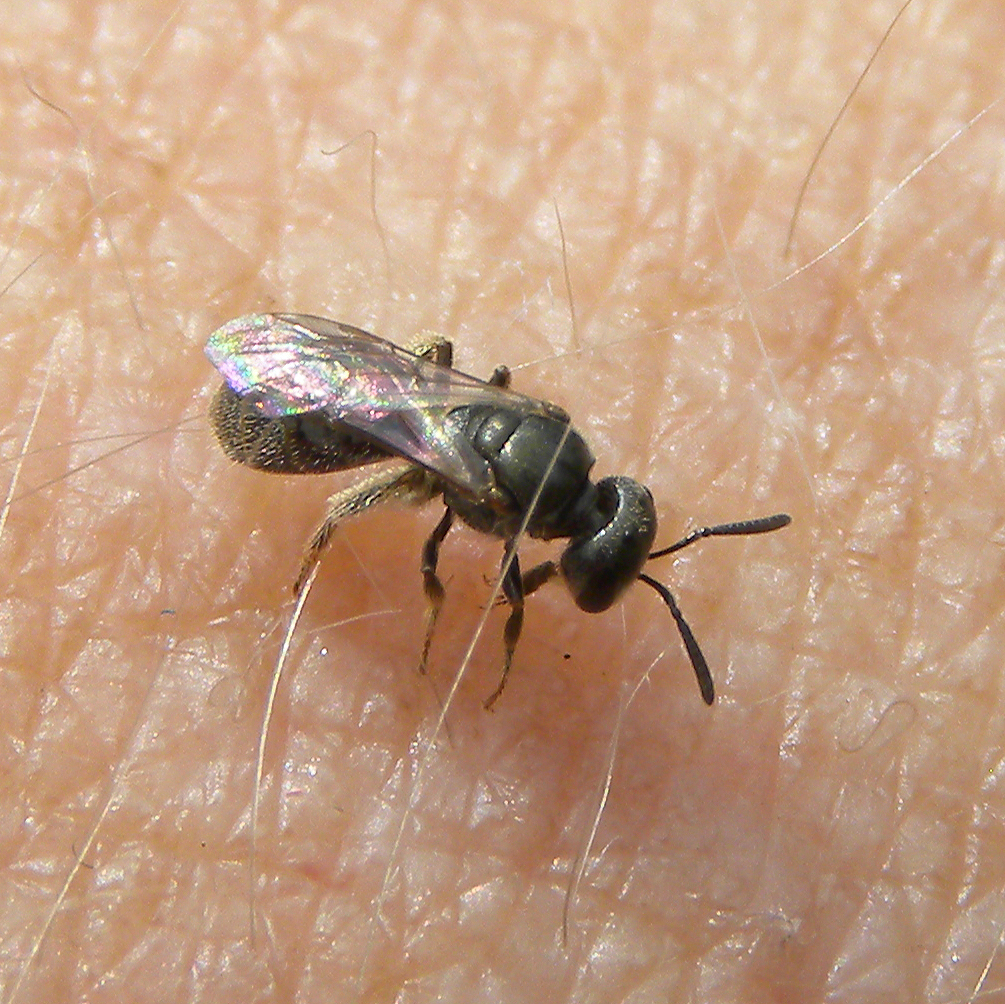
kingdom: Animalia
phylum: Arthropoda
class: Insecta
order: Hymenoptera
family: Halictidae
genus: Lasioglossum
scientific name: Lasioglossum imitatum
